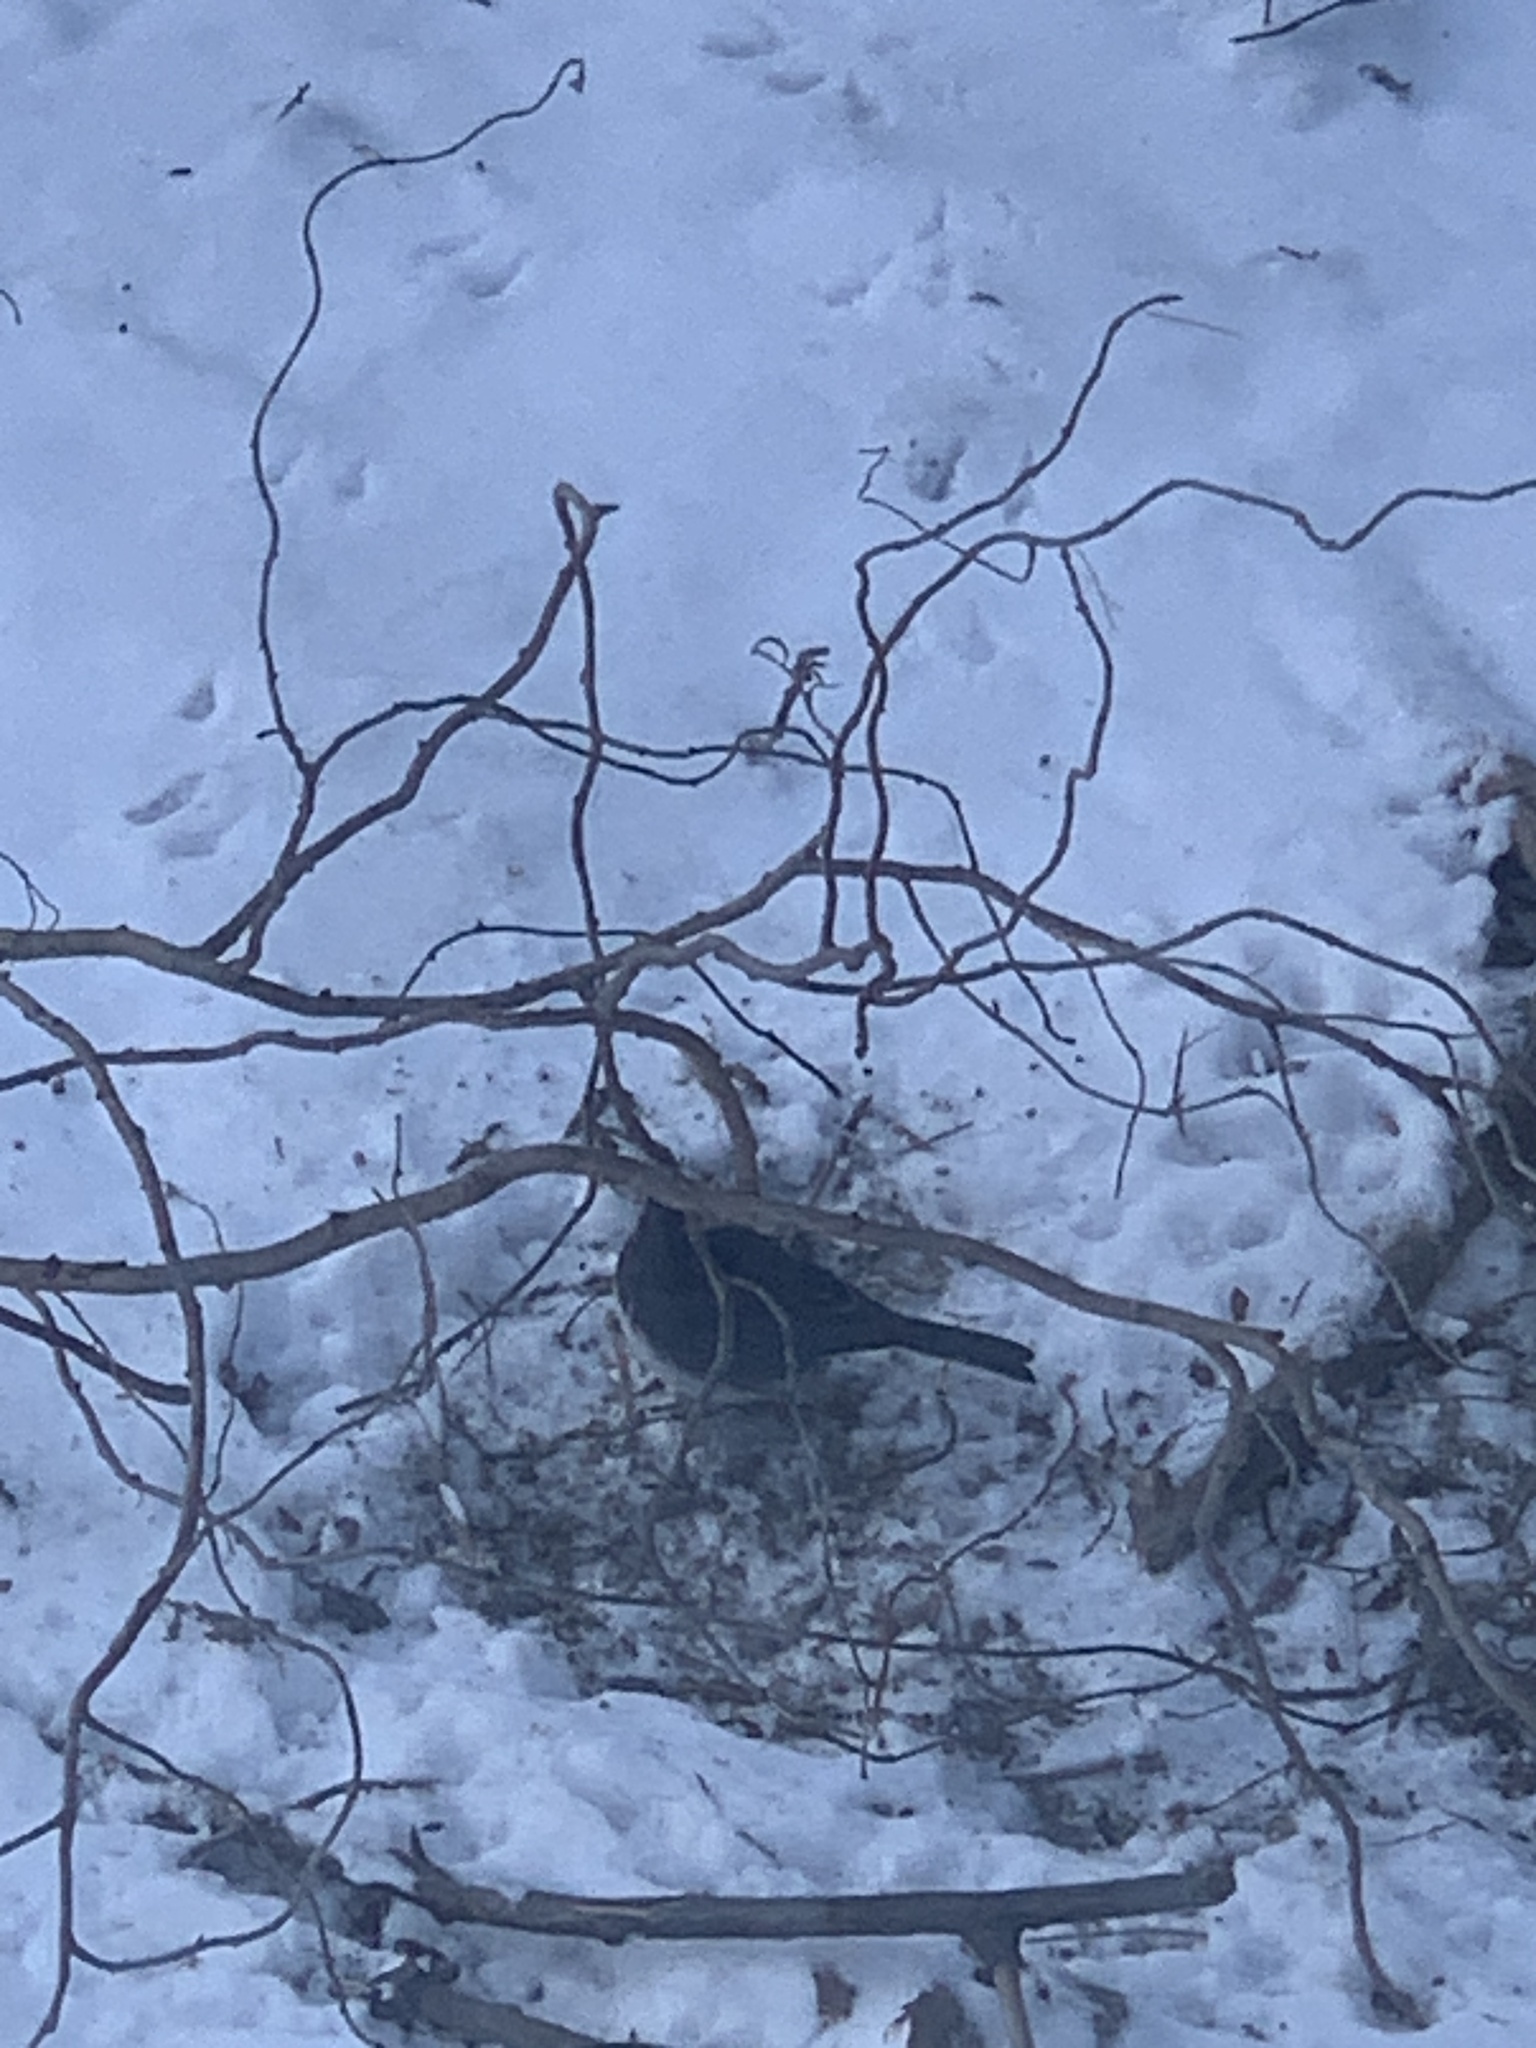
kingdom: Animalia
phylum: Chordata
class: Aves
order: Passeriformes
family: Passerellidae
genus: Junco
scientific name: Junco hyemalis
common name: Dark-eyed junco
